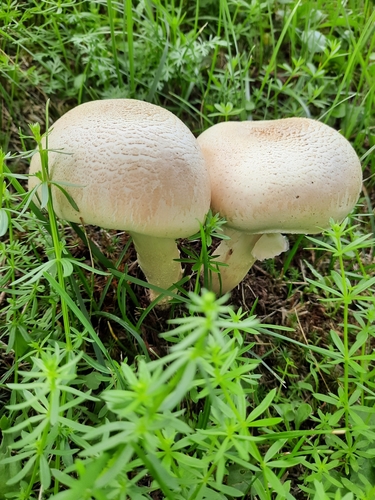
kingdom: Fungi
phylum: Basidiomycota
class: Agaricomycetes
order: Agaricales
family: Agaricaceae
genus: Agaricus
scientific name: Agaricus
